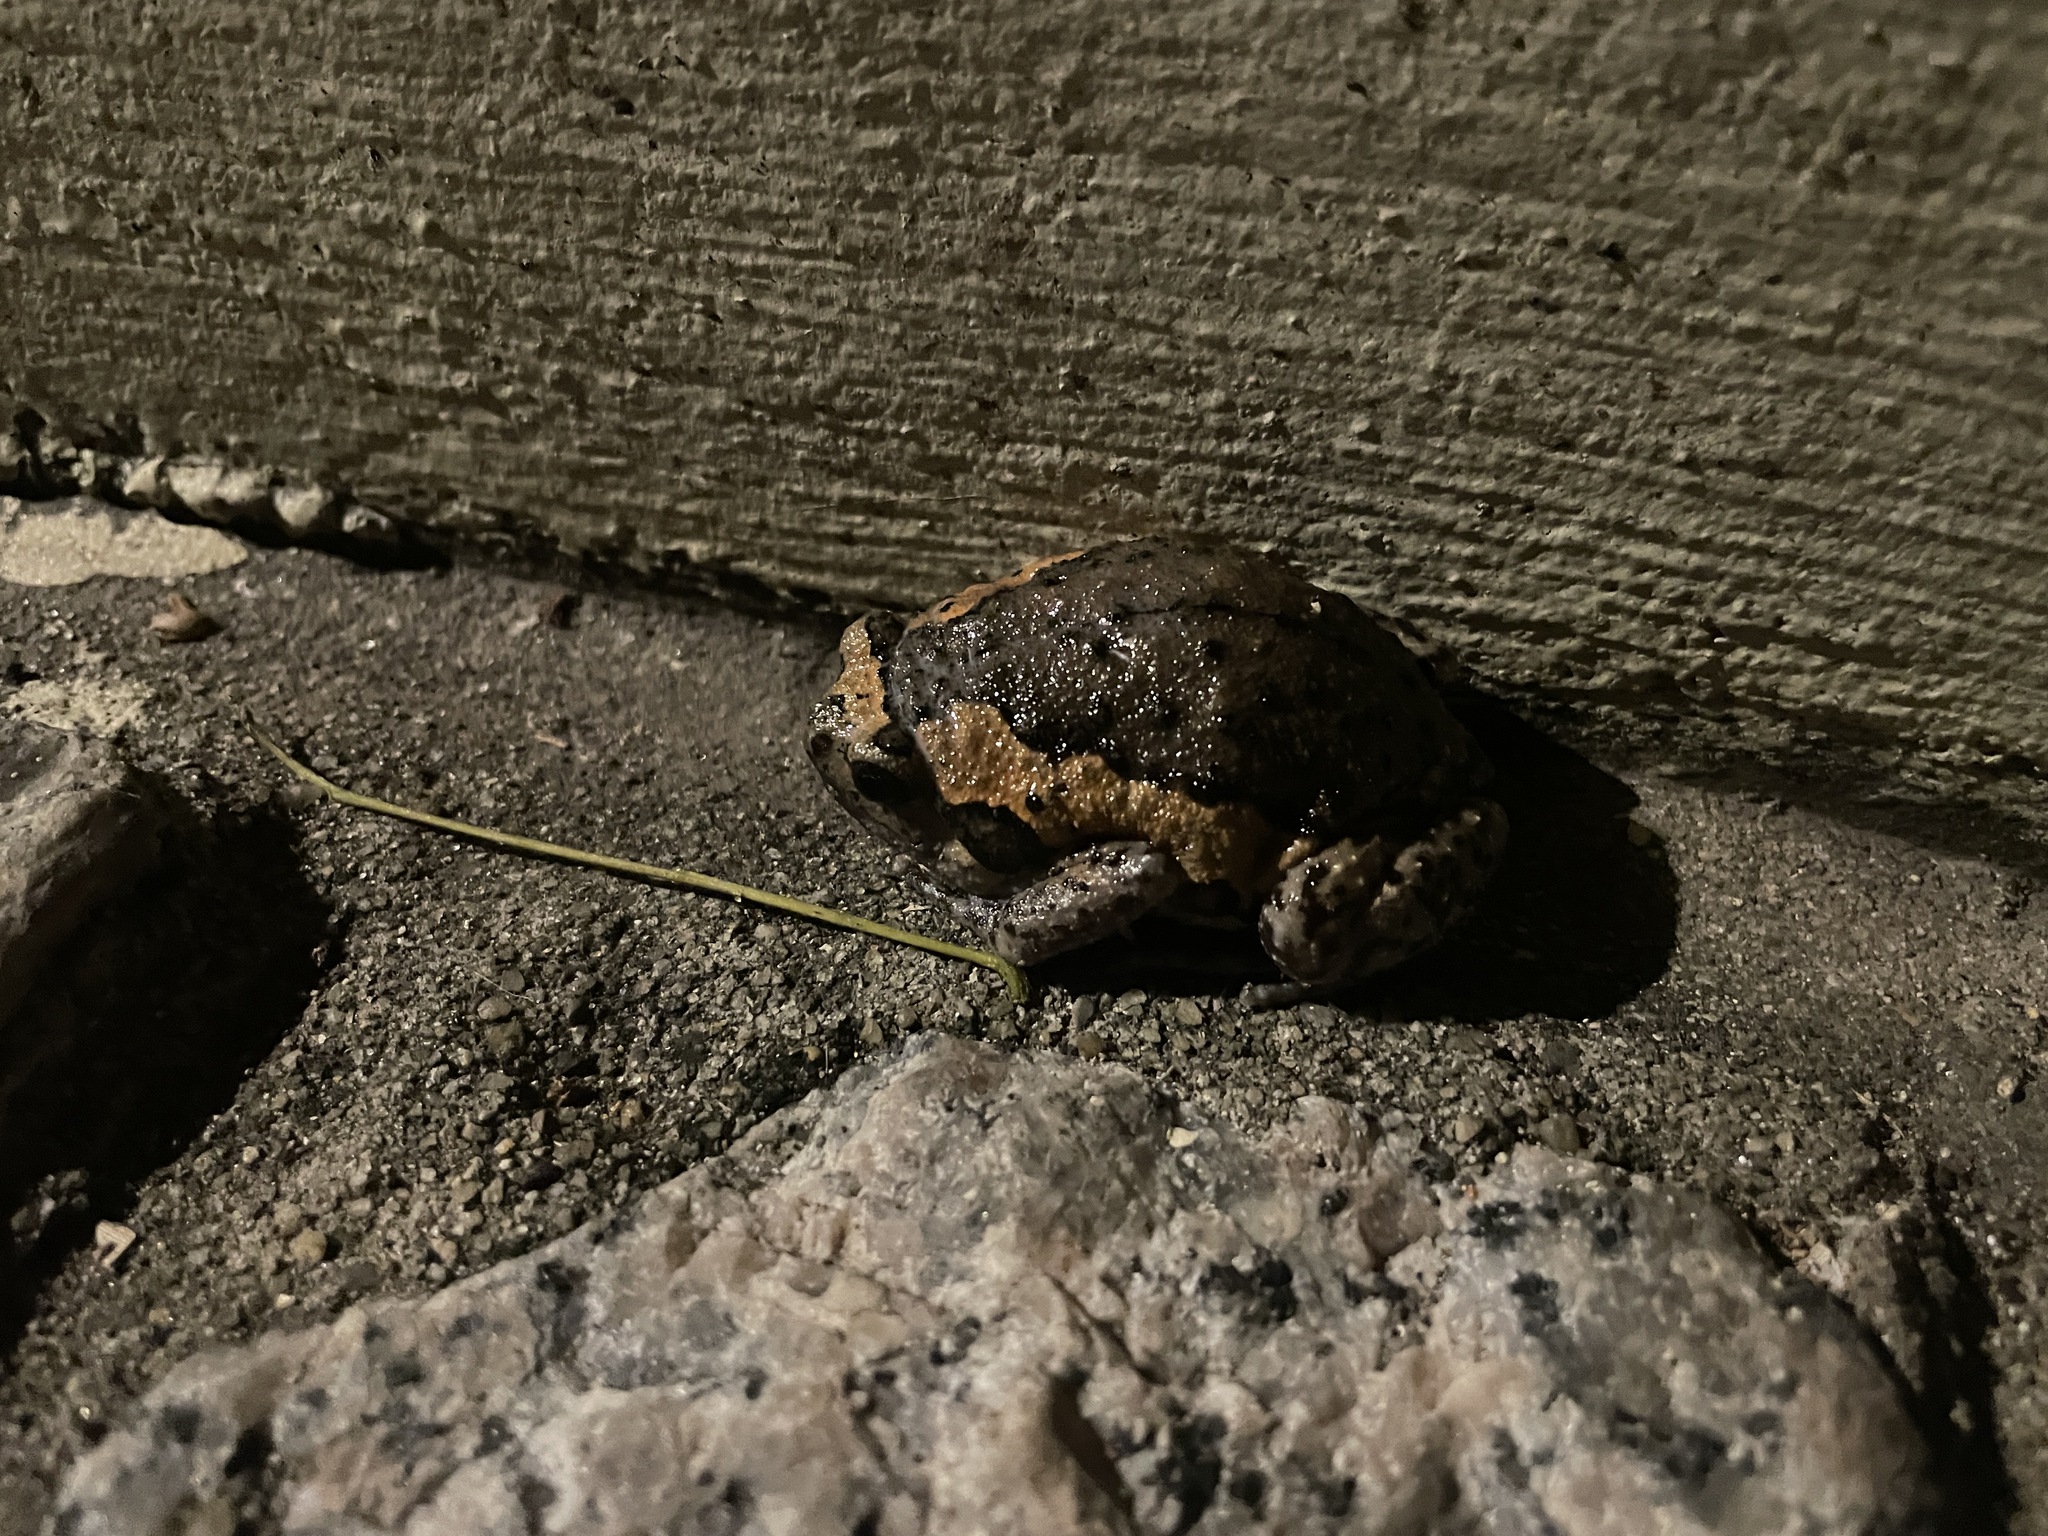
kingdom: Animalia
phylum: Chordata
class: Amphibia
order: Anura
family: Microhylidae
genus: Kaloula
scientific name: Kaloula pulchra
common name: Common,banded bullfrog
